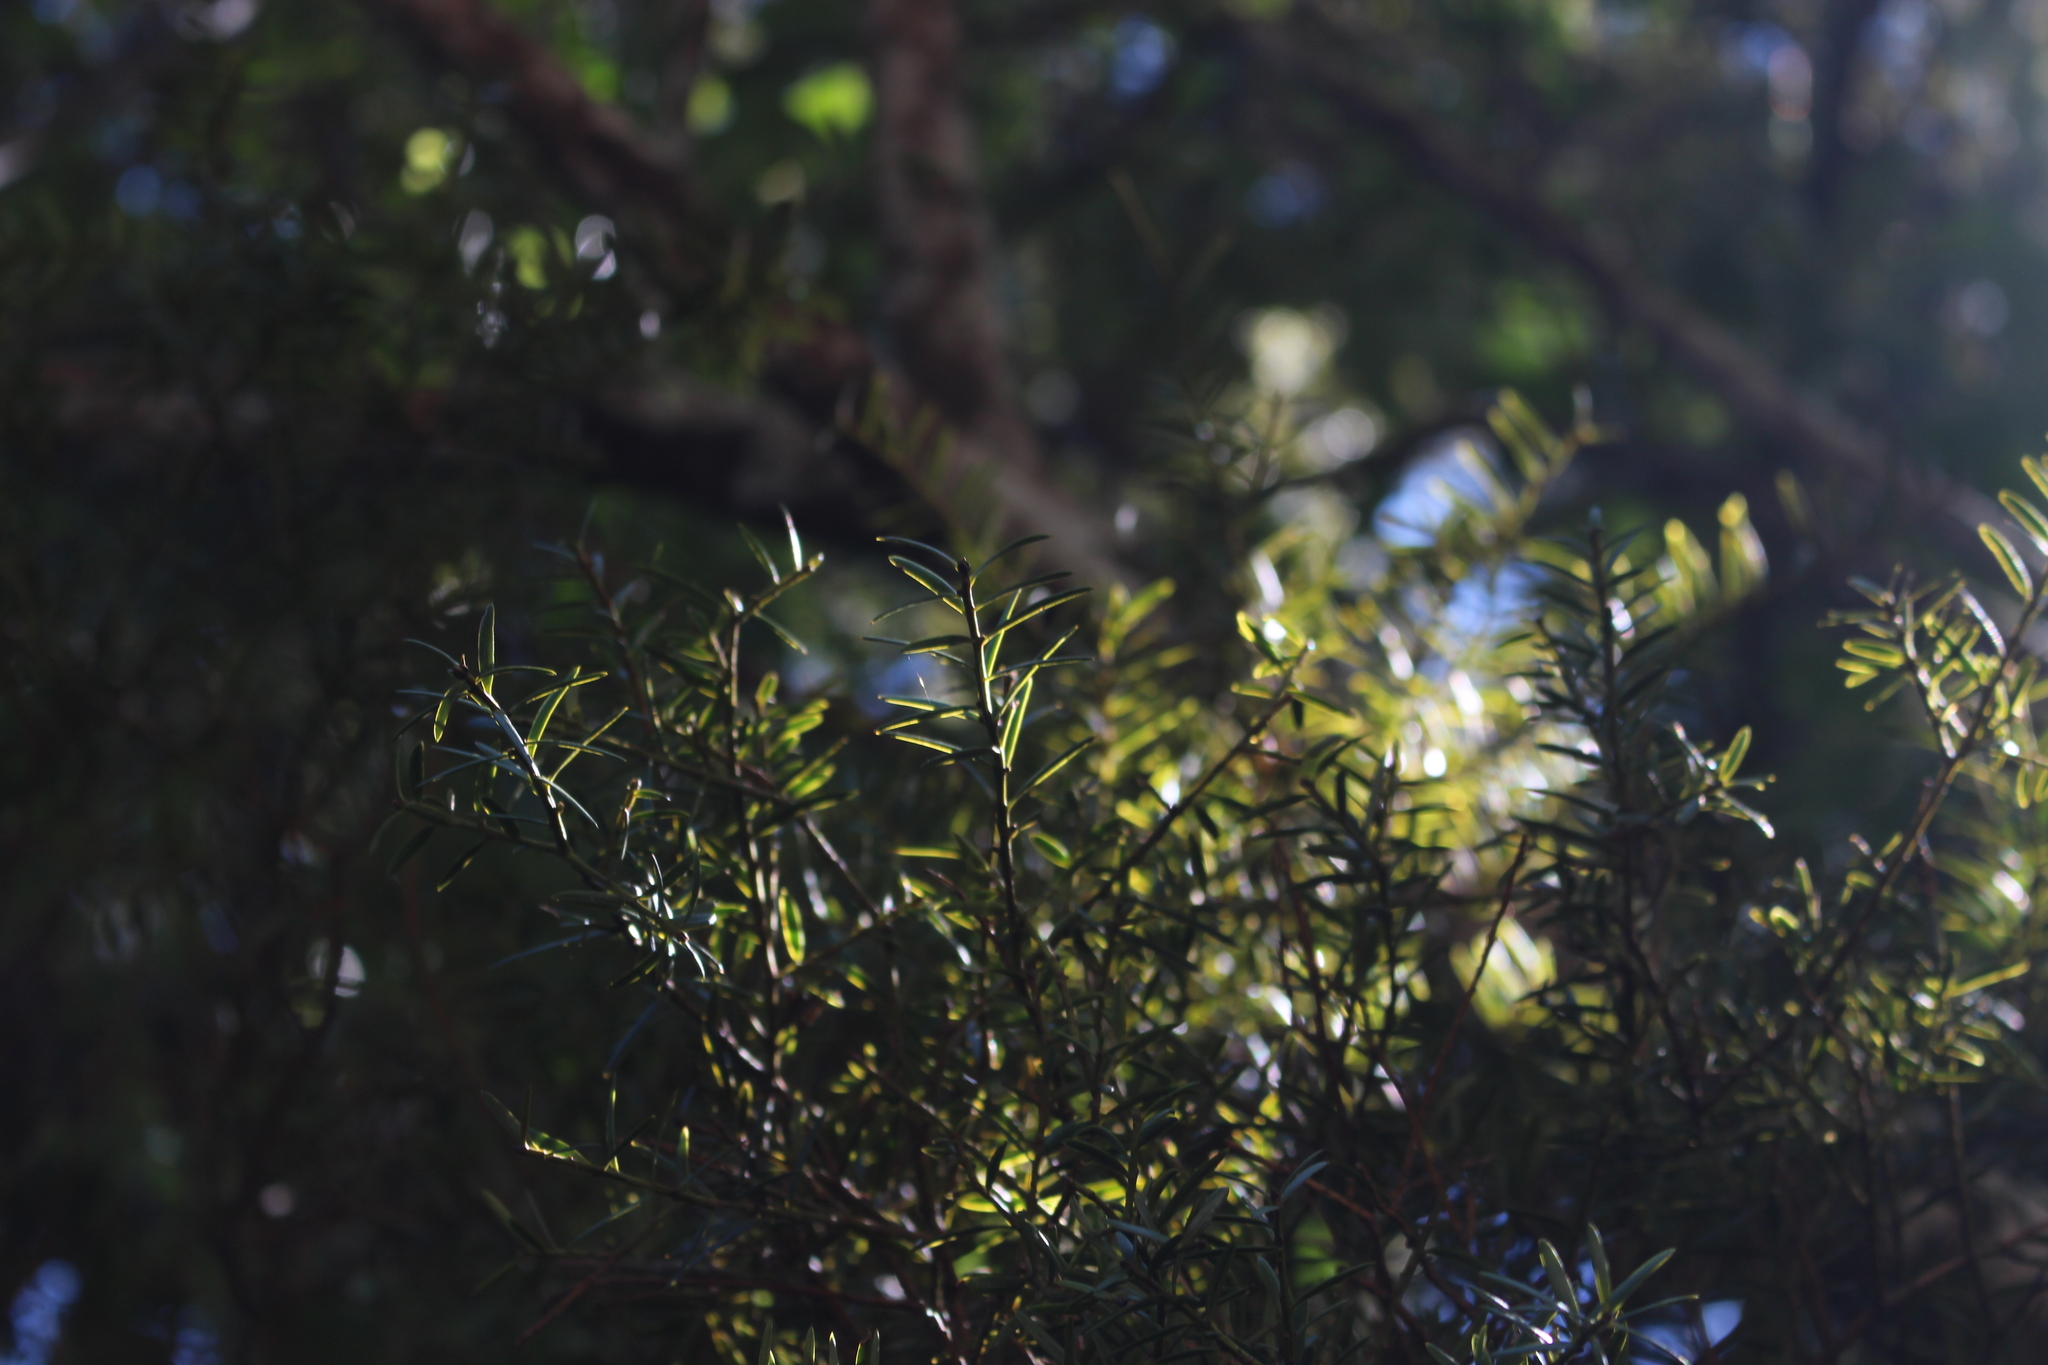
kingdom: Plantae
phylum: Tracheophyta
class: Pinopsida
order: Pinales
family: Podocarpaceae
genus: Podocarpus
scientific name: Podocarpus totara
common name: Totara
